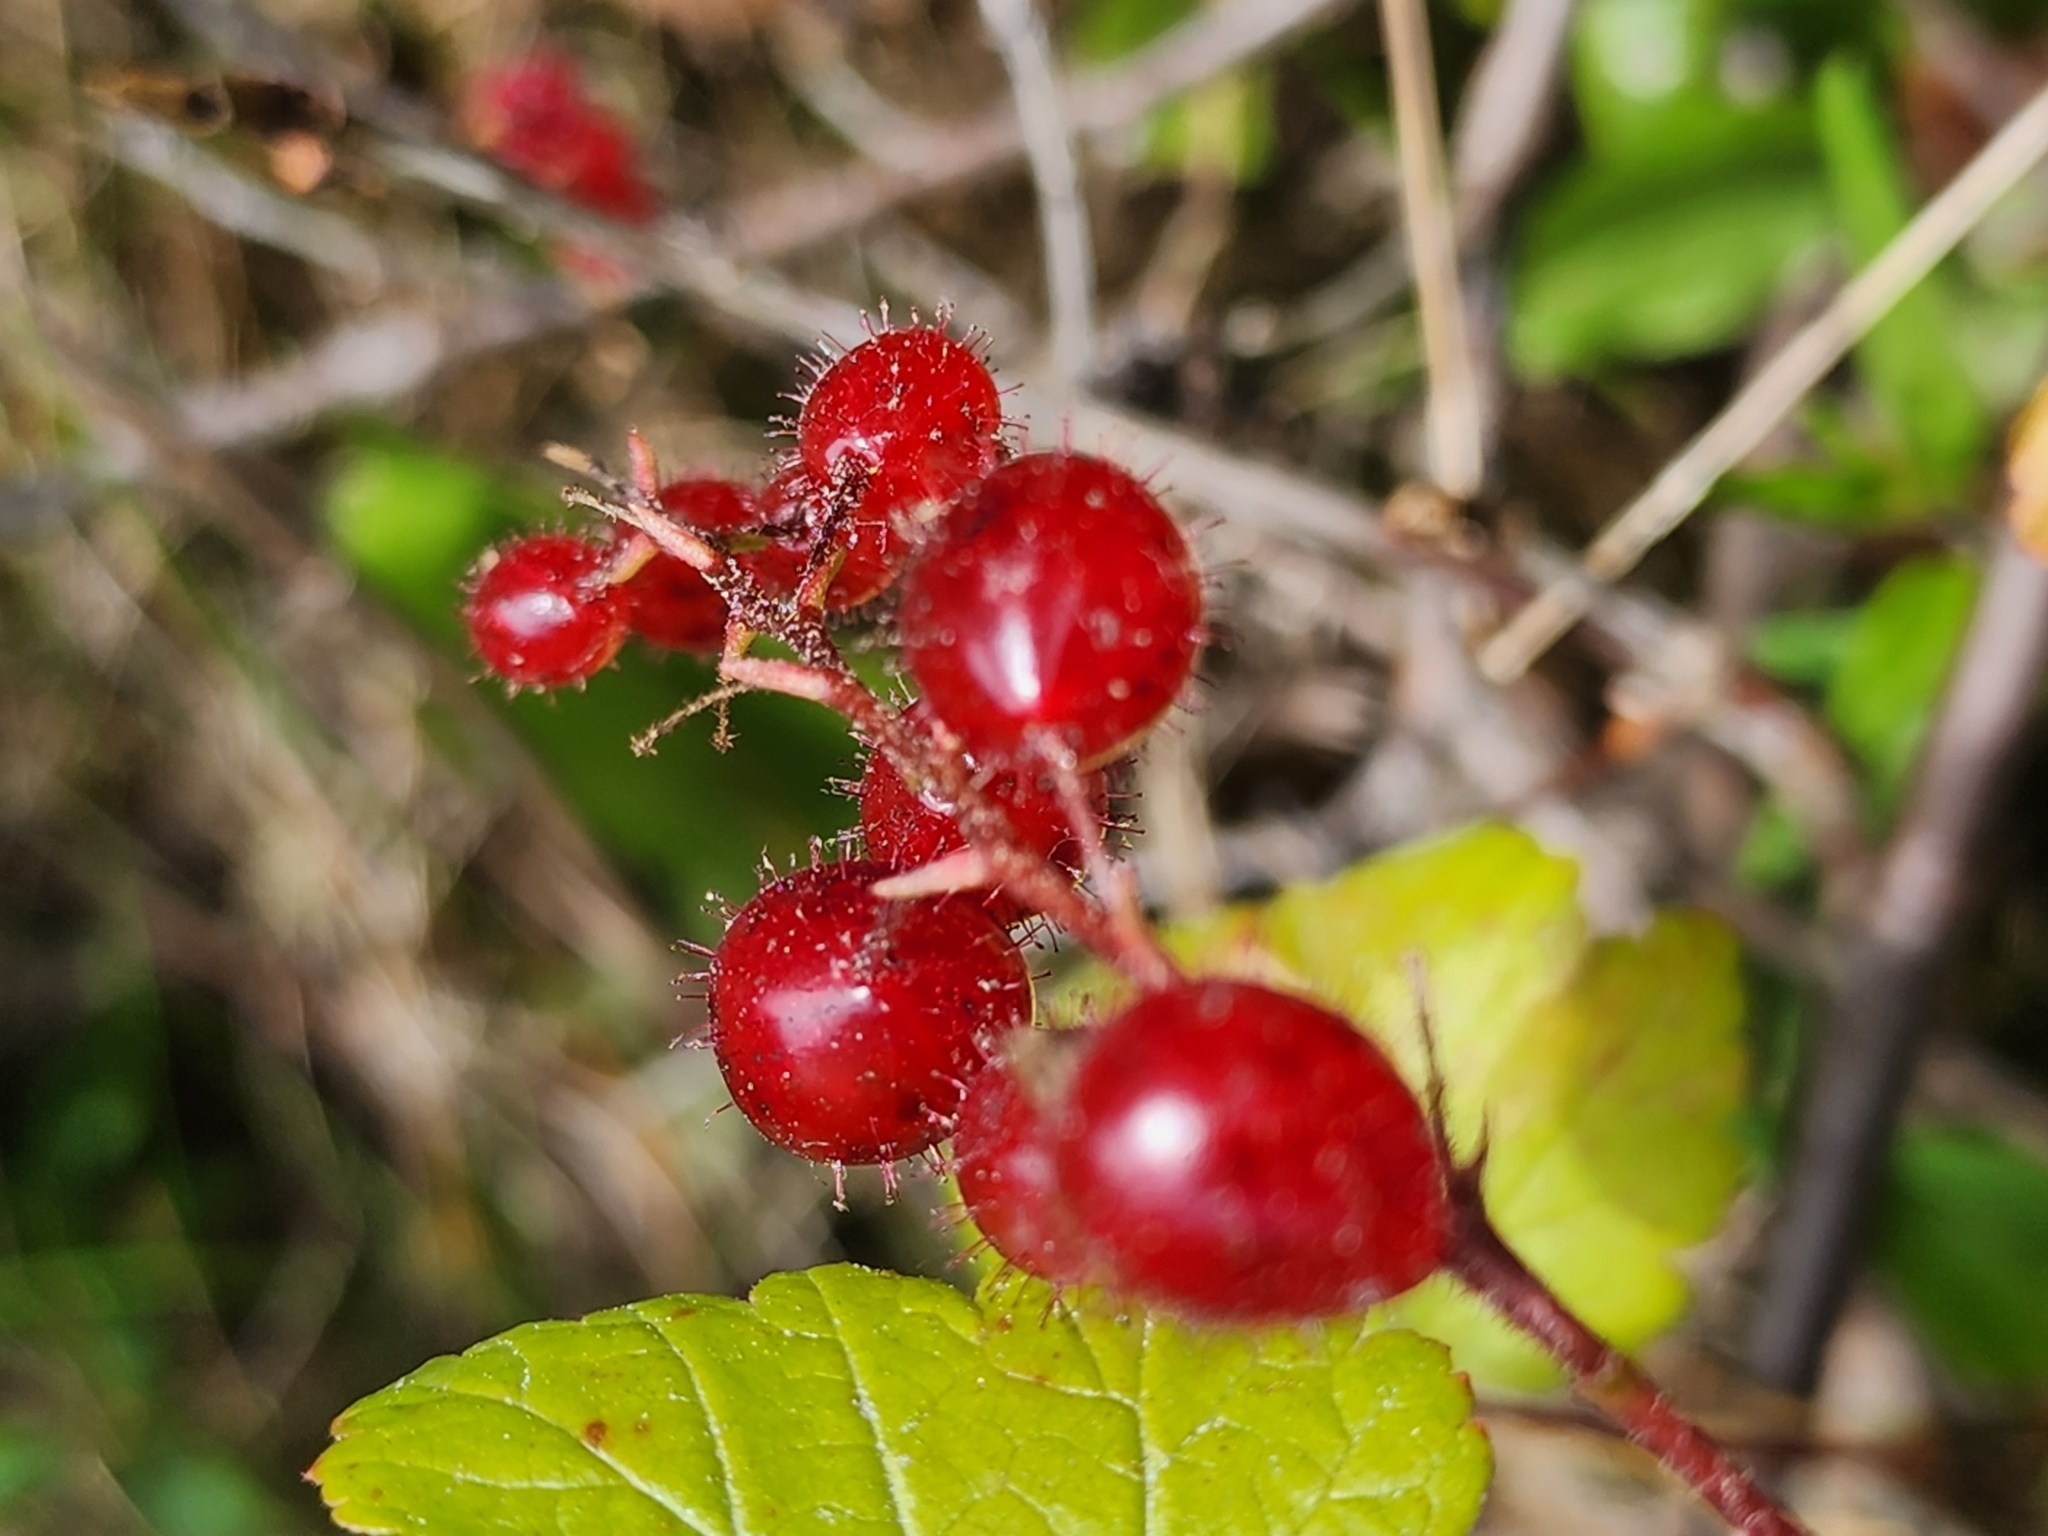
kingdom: Plantae
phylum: Tracheophyta
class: Magnoliopsida
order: Saxifragales
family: Grossulariaceae
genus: Ribes
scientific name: Ribes glandulosum
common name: Skunk currant
